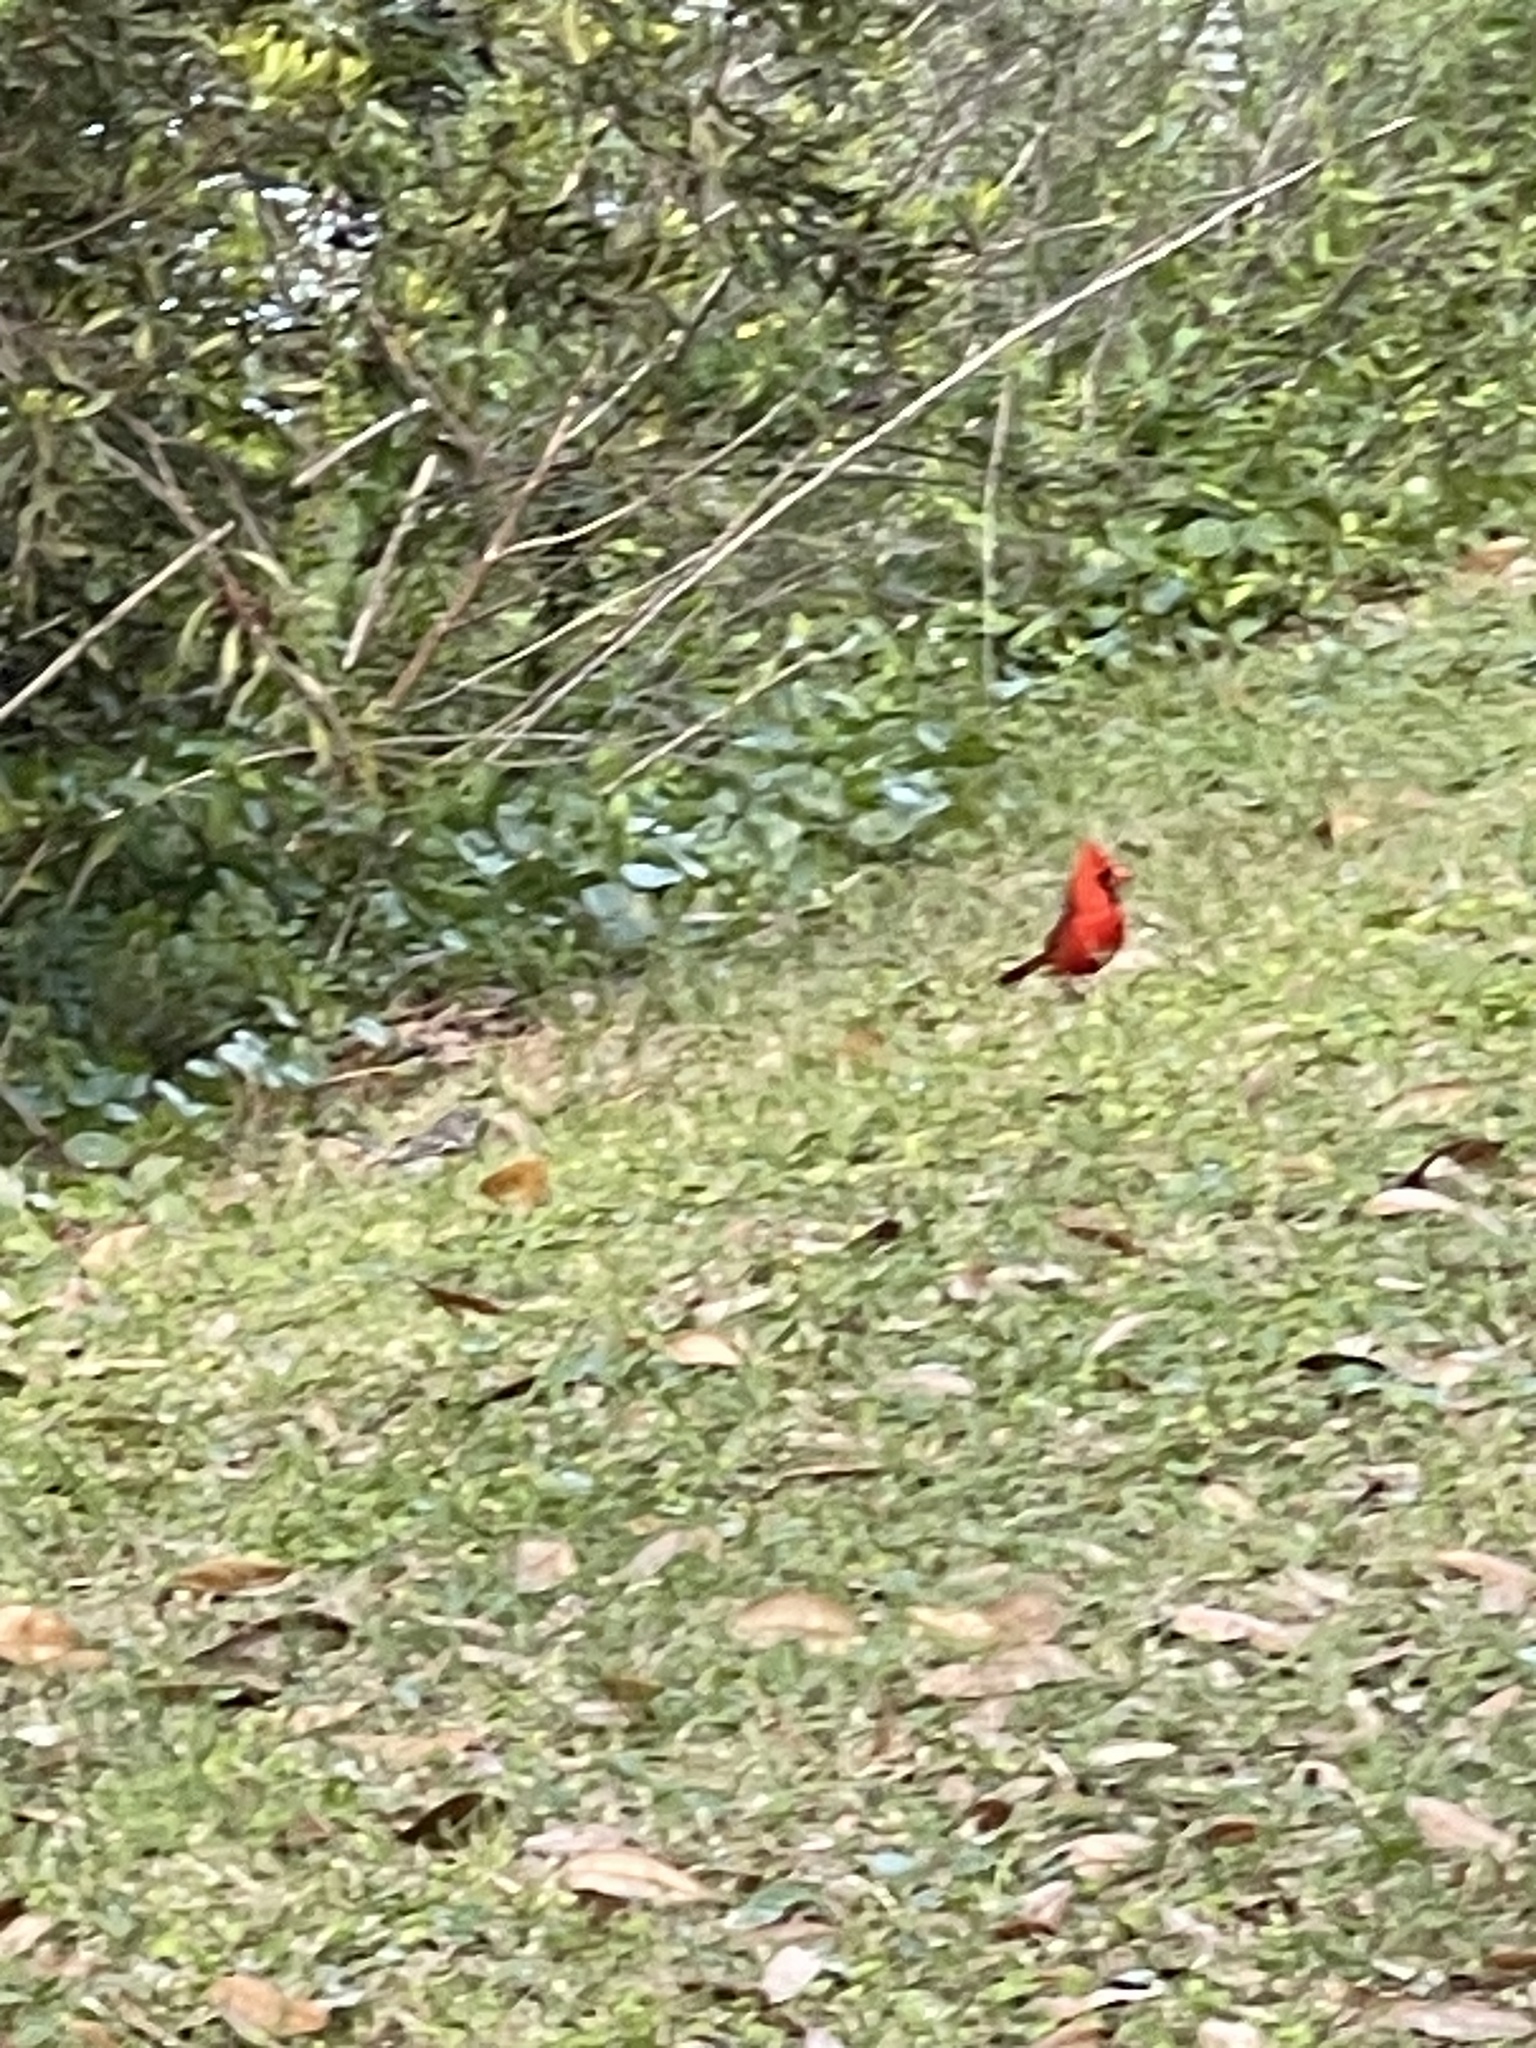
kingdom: Animalia
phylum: Chordata
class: Aves
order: Passeriformes
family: Cardinalidae
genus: Cardinalis
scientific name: Cardinalis cardinalis
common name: Northern cardinal
